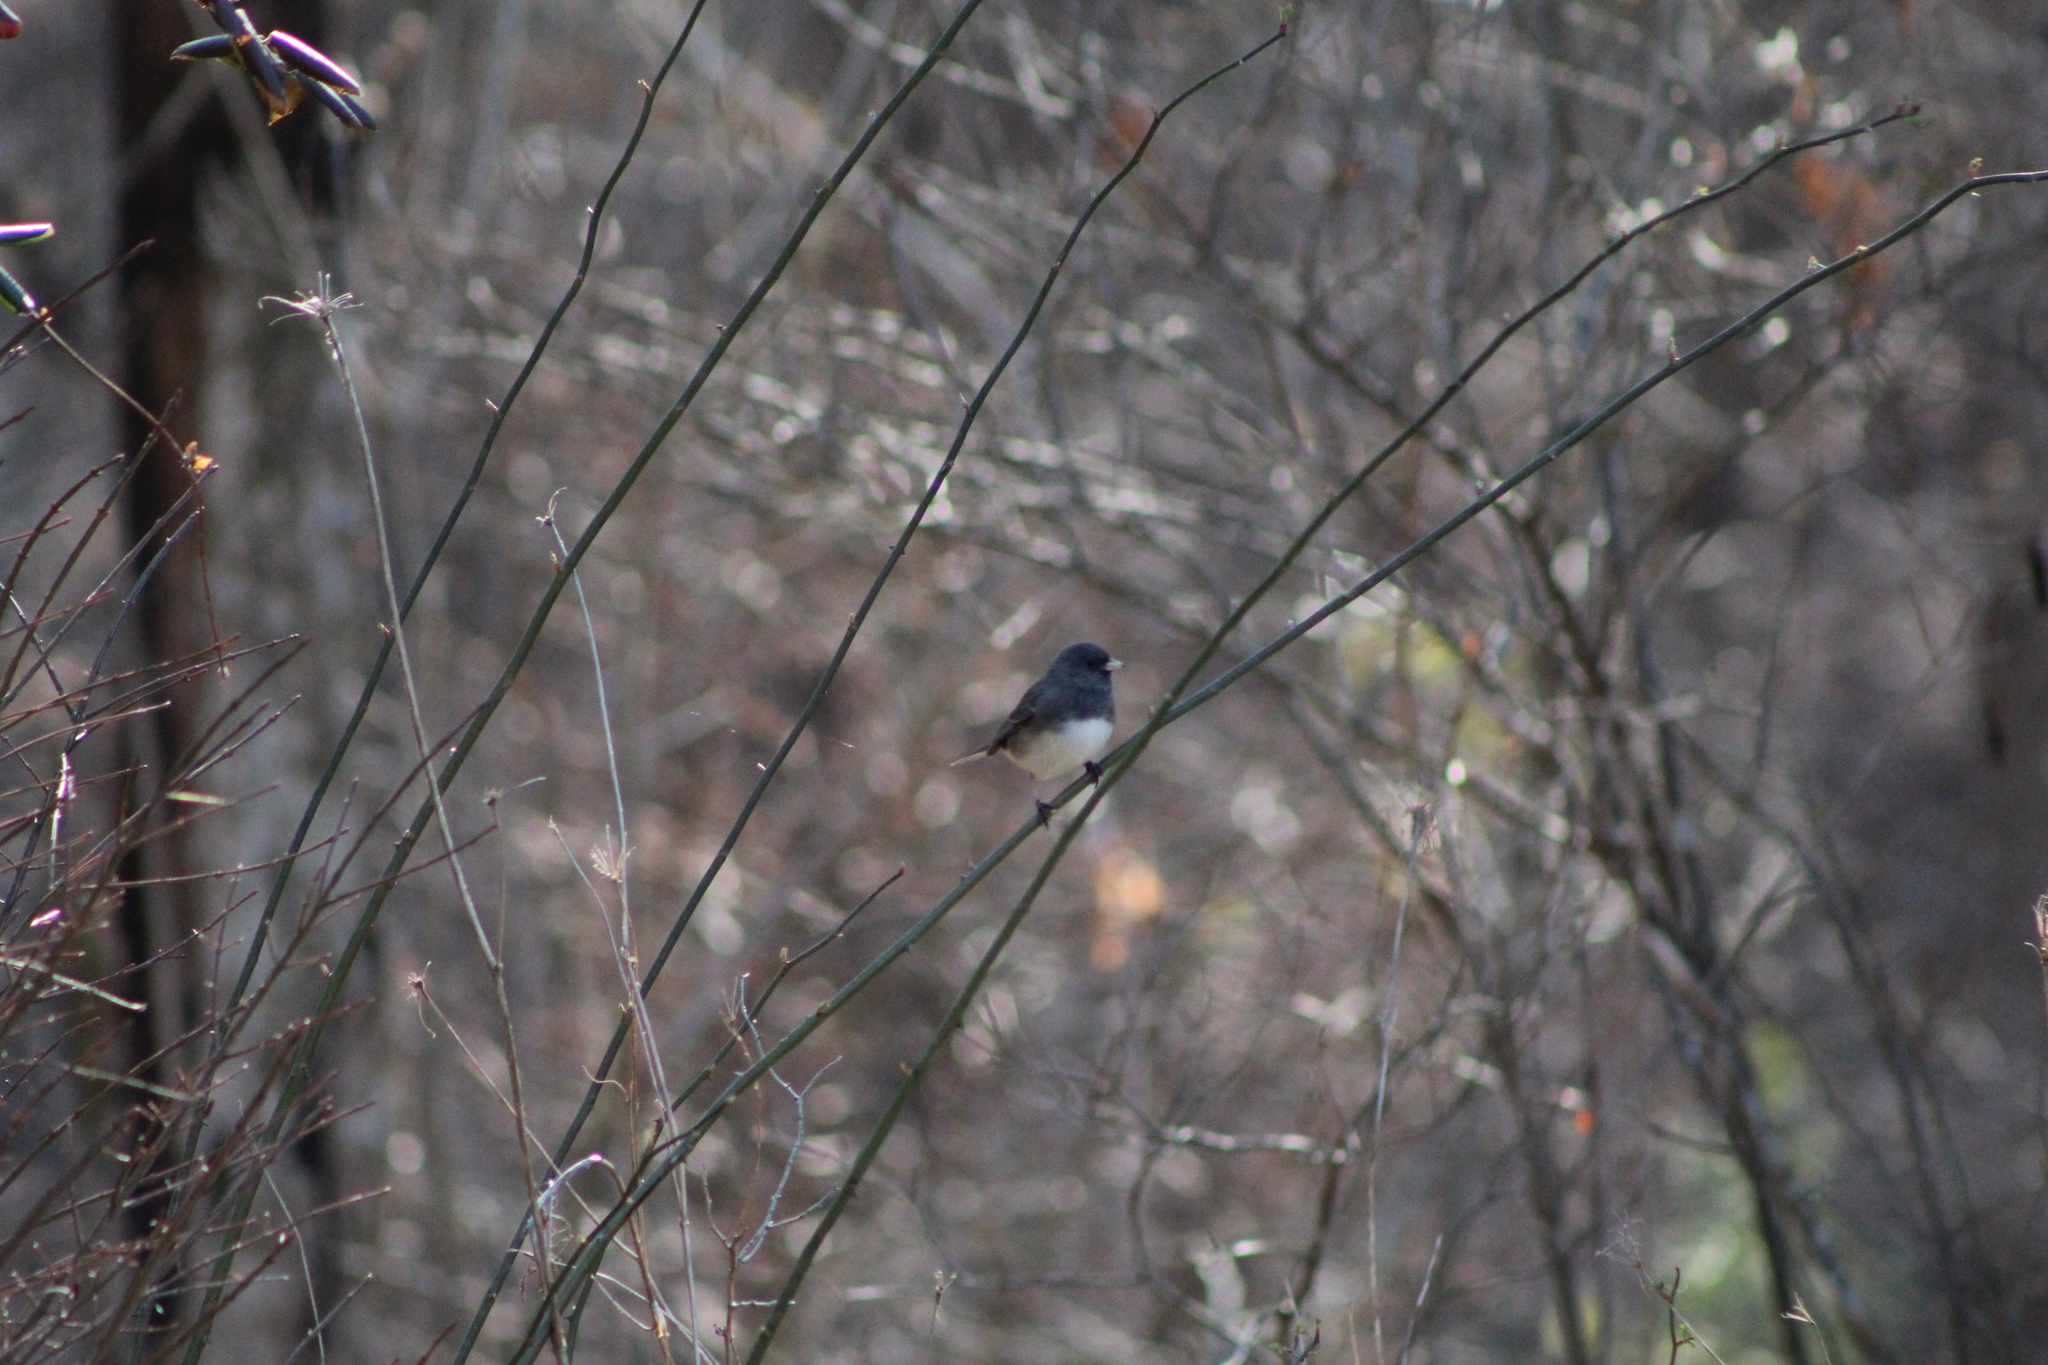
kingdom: Animalia
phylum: Chordata
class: Aves
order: Passeriformes
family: Passerellidae
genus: Junco
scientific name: Junco hyemalis
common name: Dark-eyed junco
